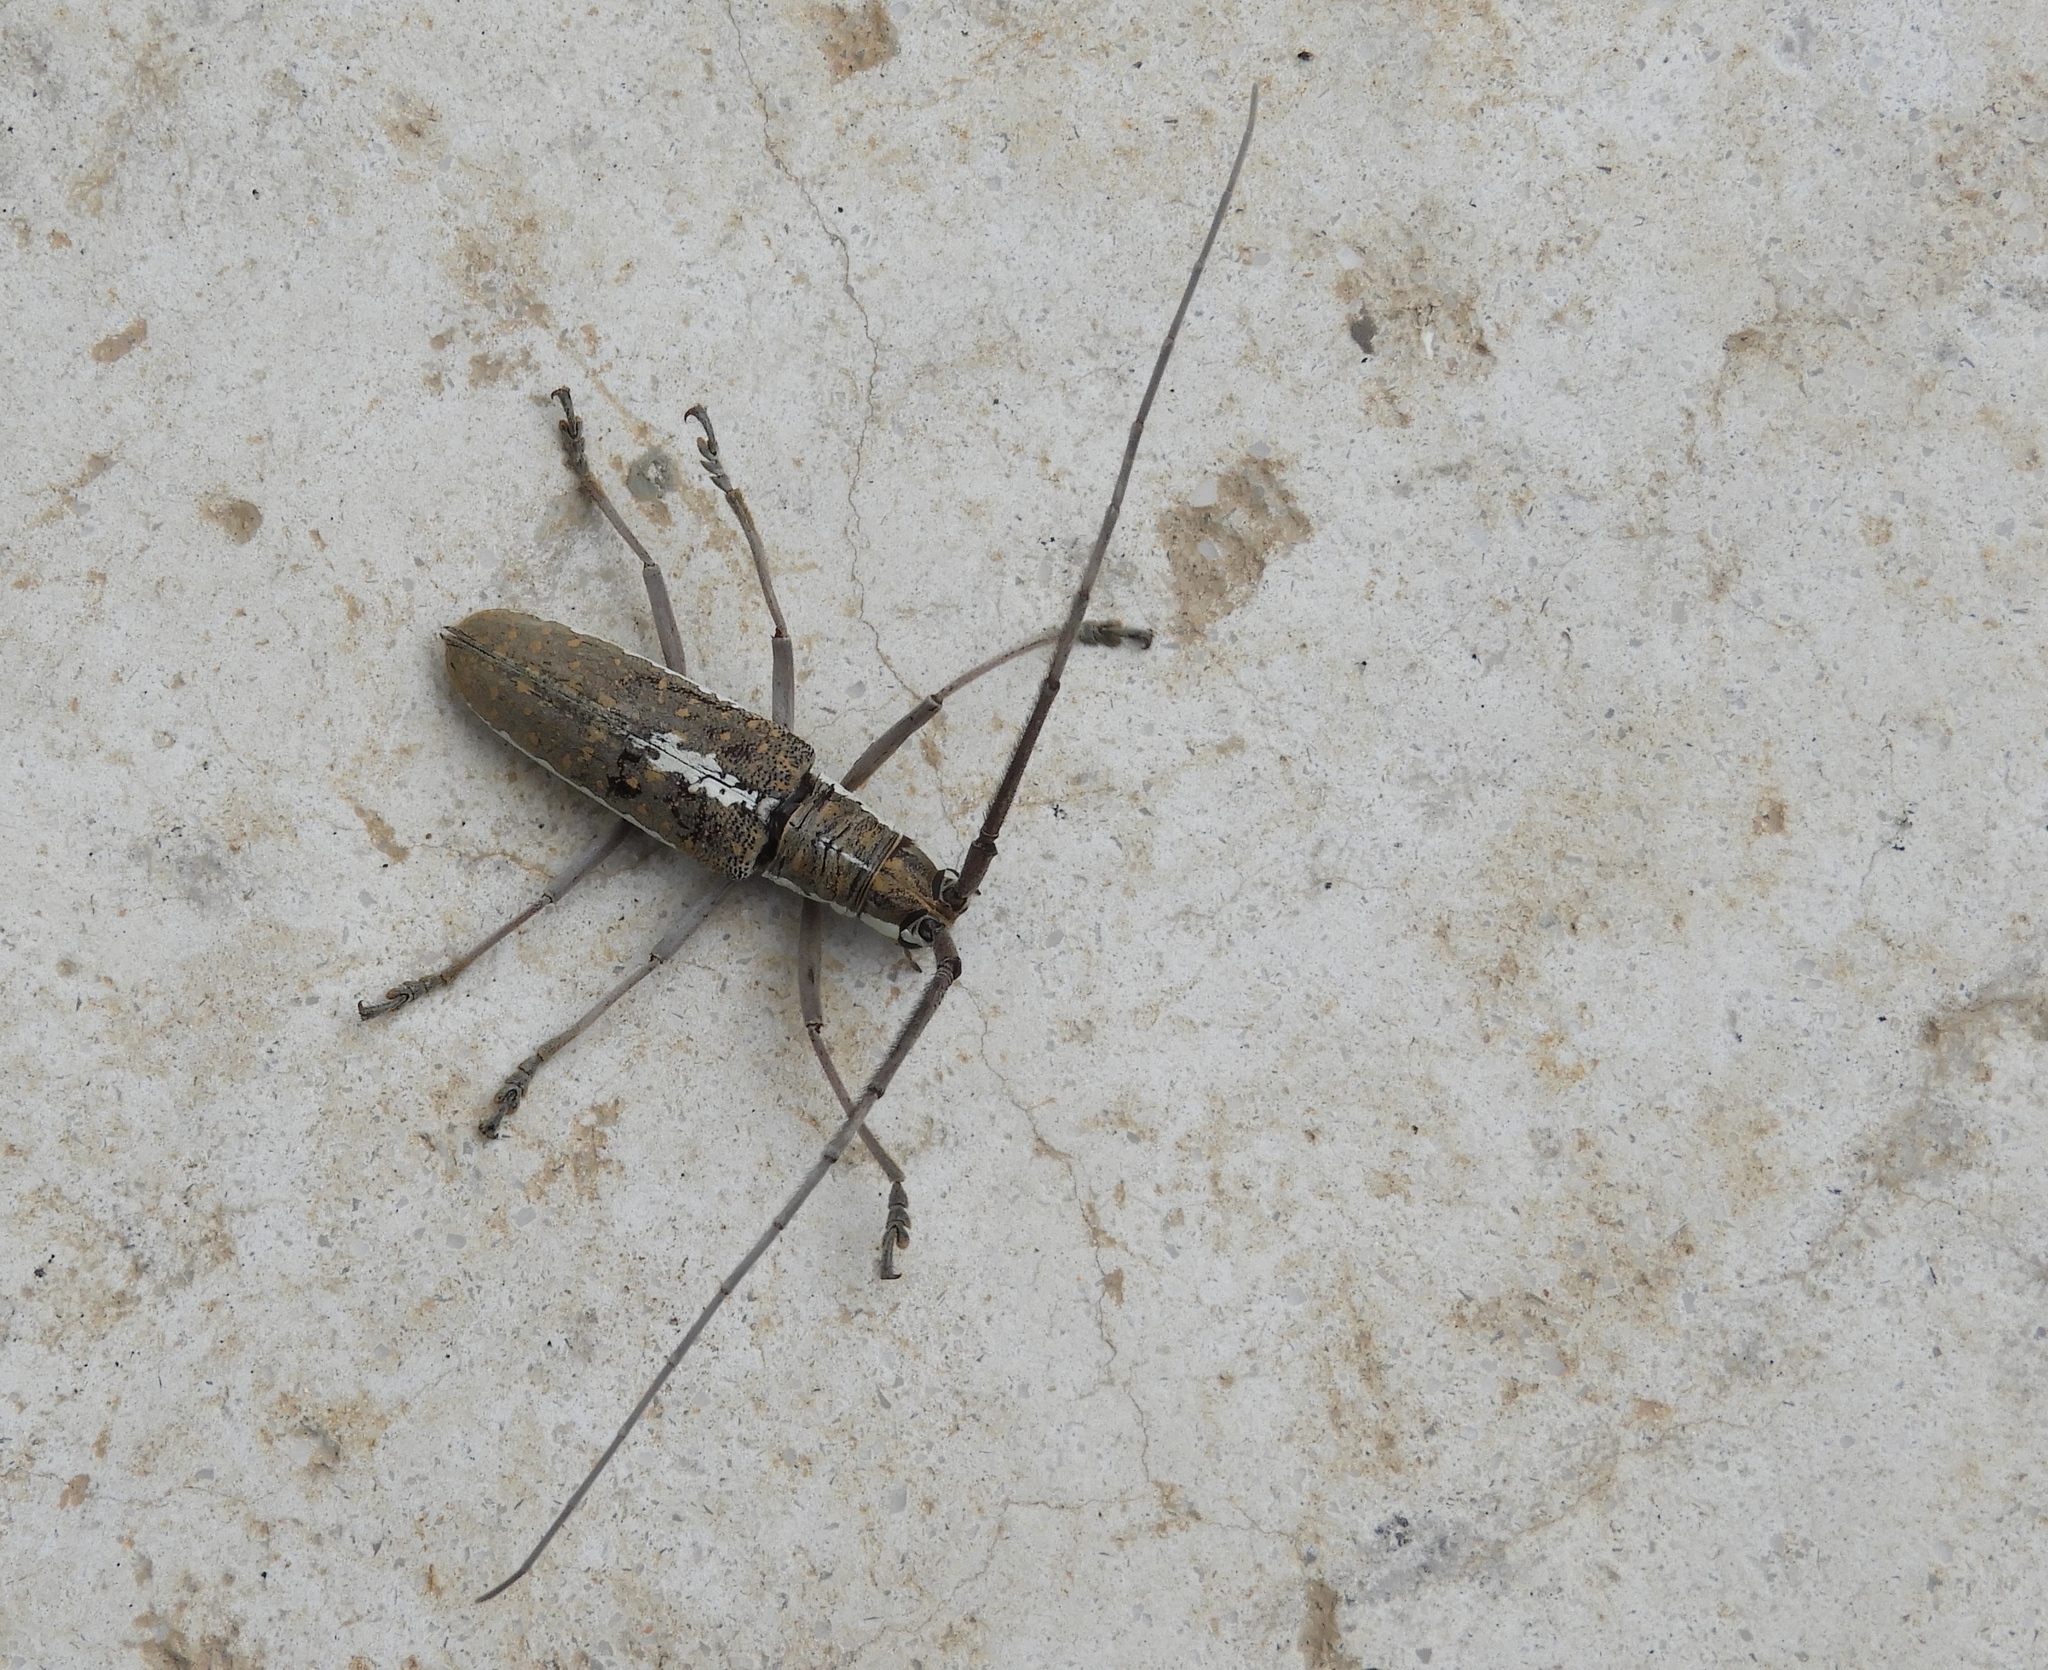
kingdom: Animalia
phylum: Arthropoda
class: Insecta
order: Coleoptera
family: Cerambycidae
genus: Neoptychodes
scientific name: Neoptychodes trilineatus
